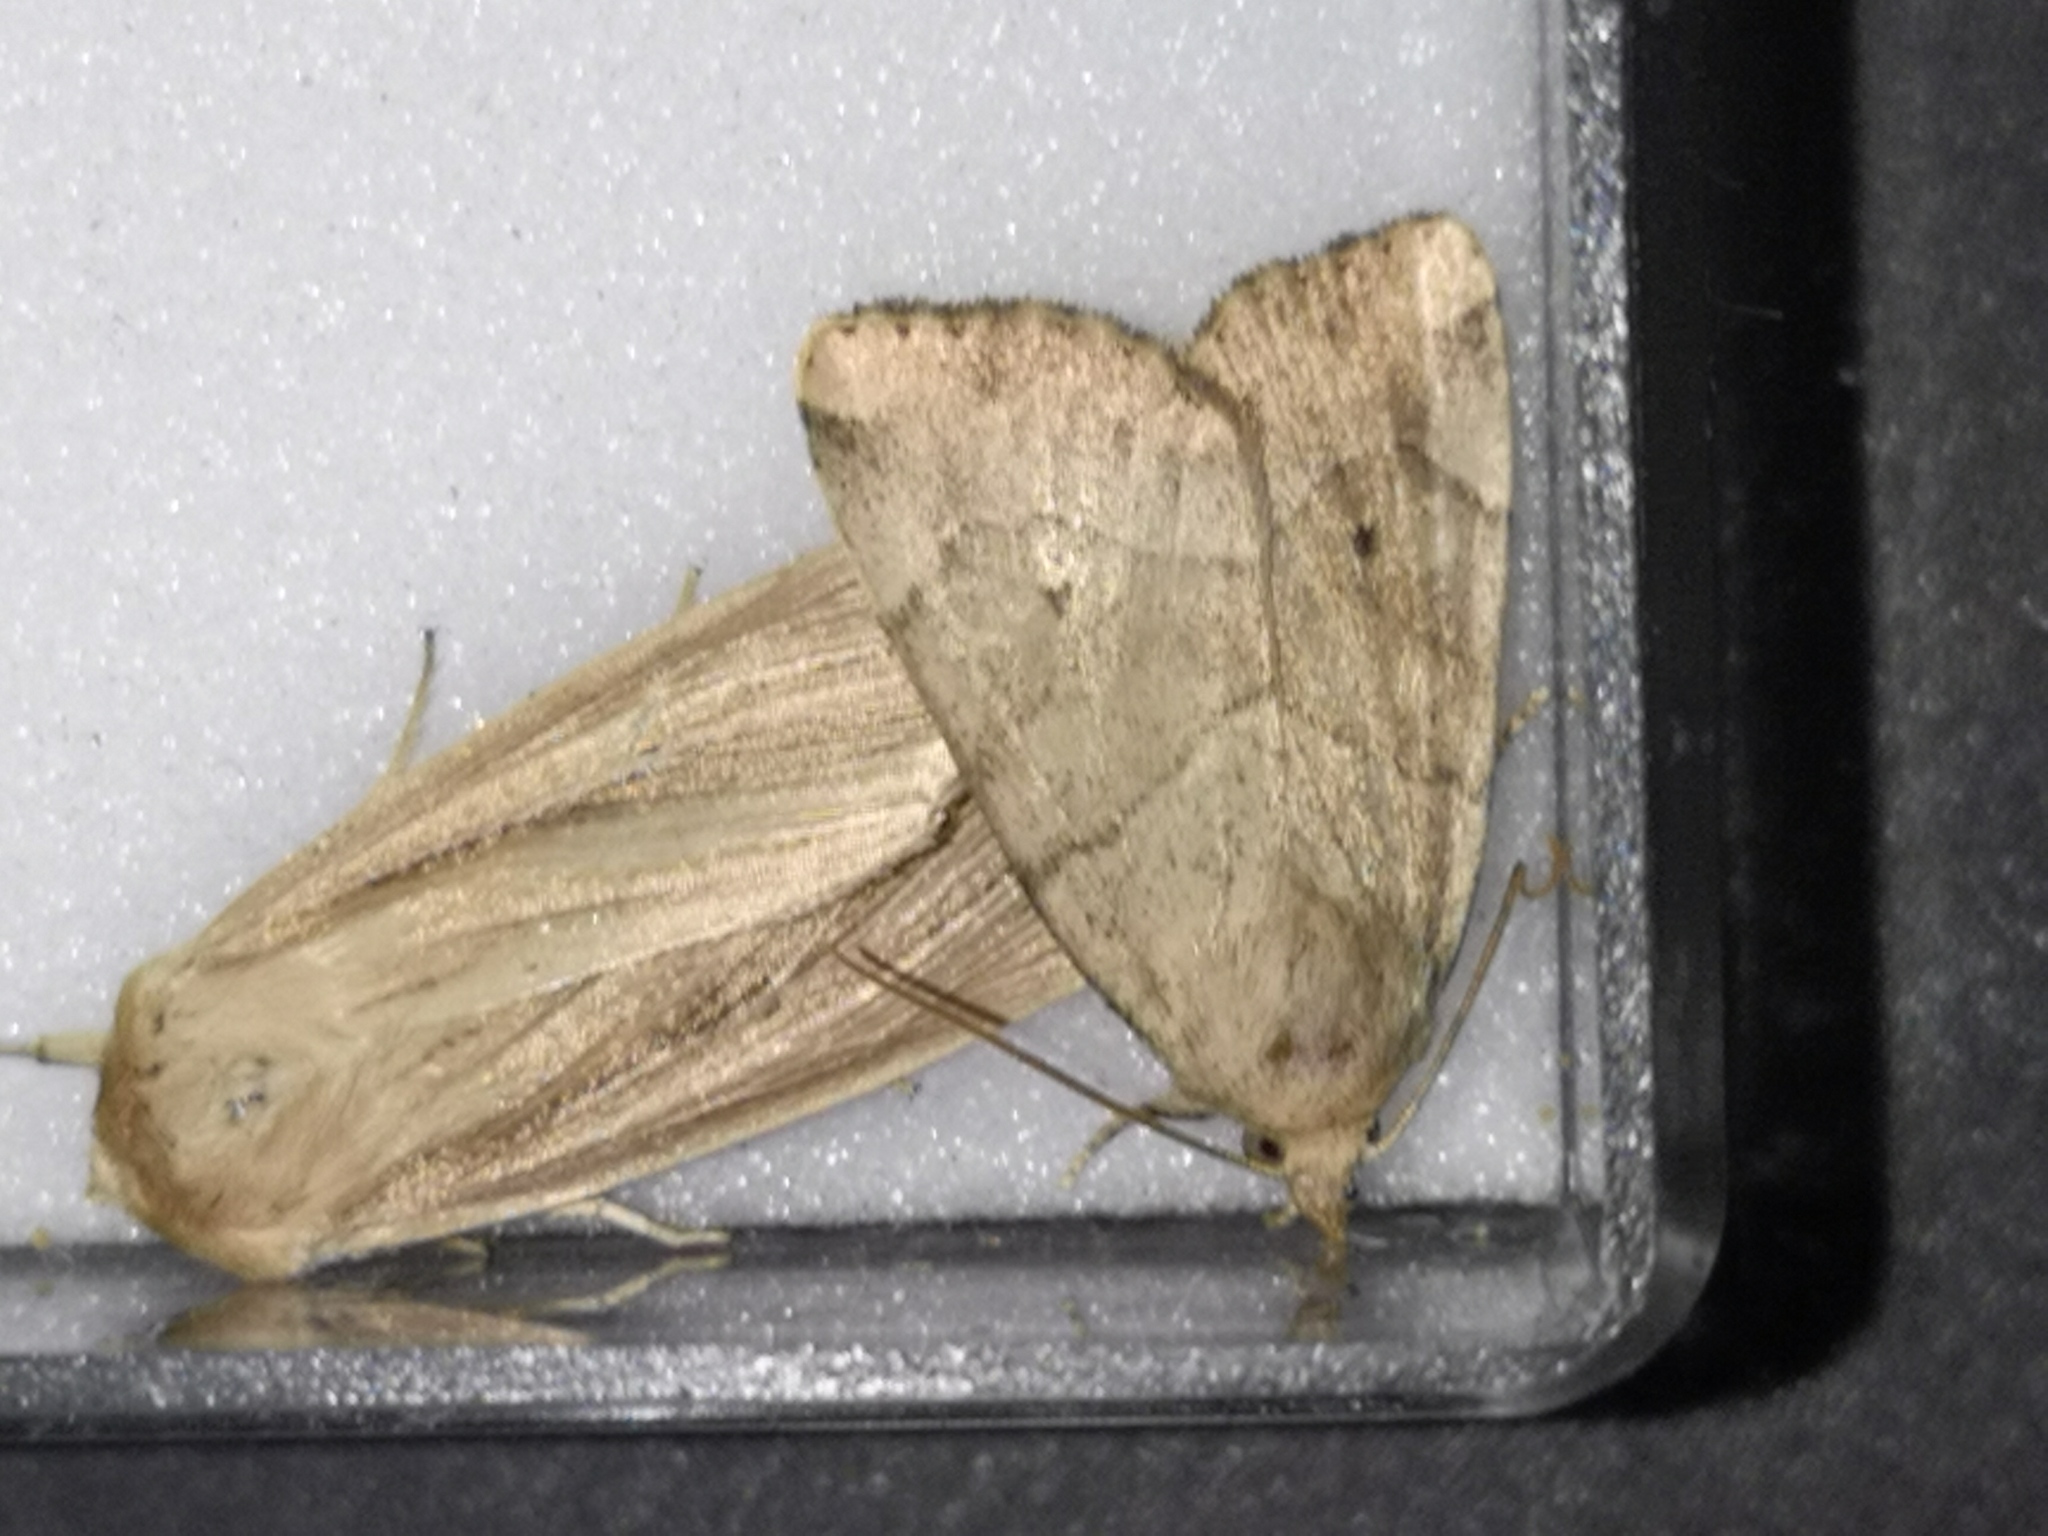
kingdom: Animalia
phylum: Arthropoda
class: Insecta
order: Lepidoptera
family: Noctuidae
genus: Cosmia
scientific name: Cosmia trapezina
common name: Dun-bar
